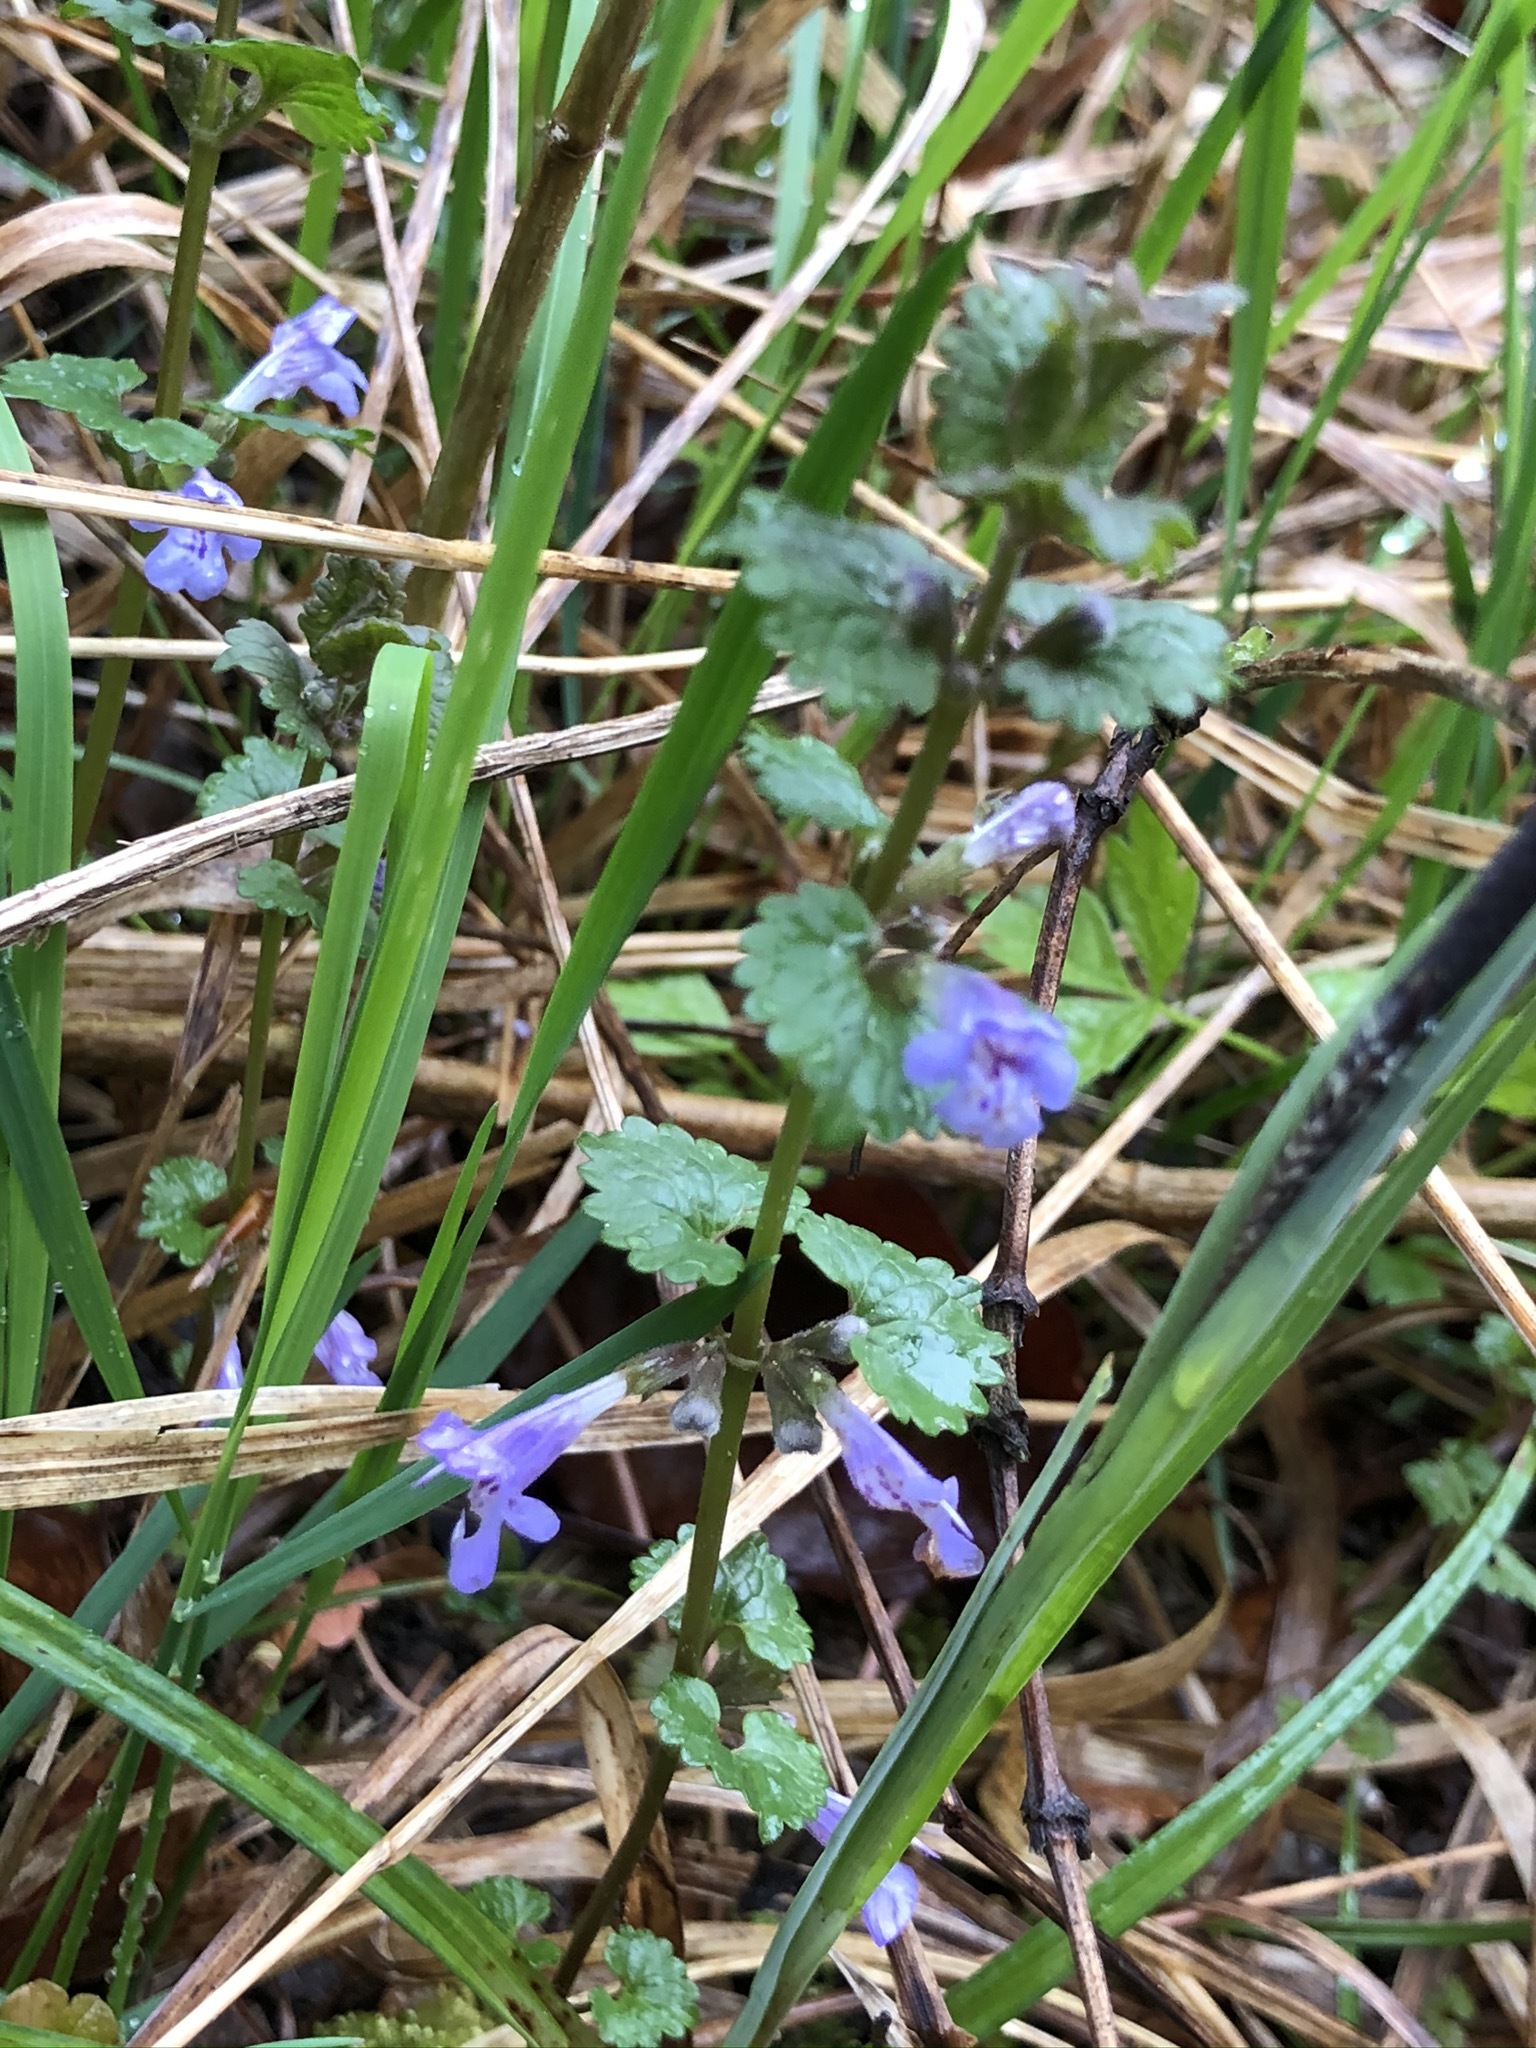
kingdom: Plantae
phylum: Tracheophyta
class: Magnoliopsida
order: Lamiales
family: Lamiaceae
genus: Glechoma
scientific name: Glechoma hederacea
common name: Ground ivy
